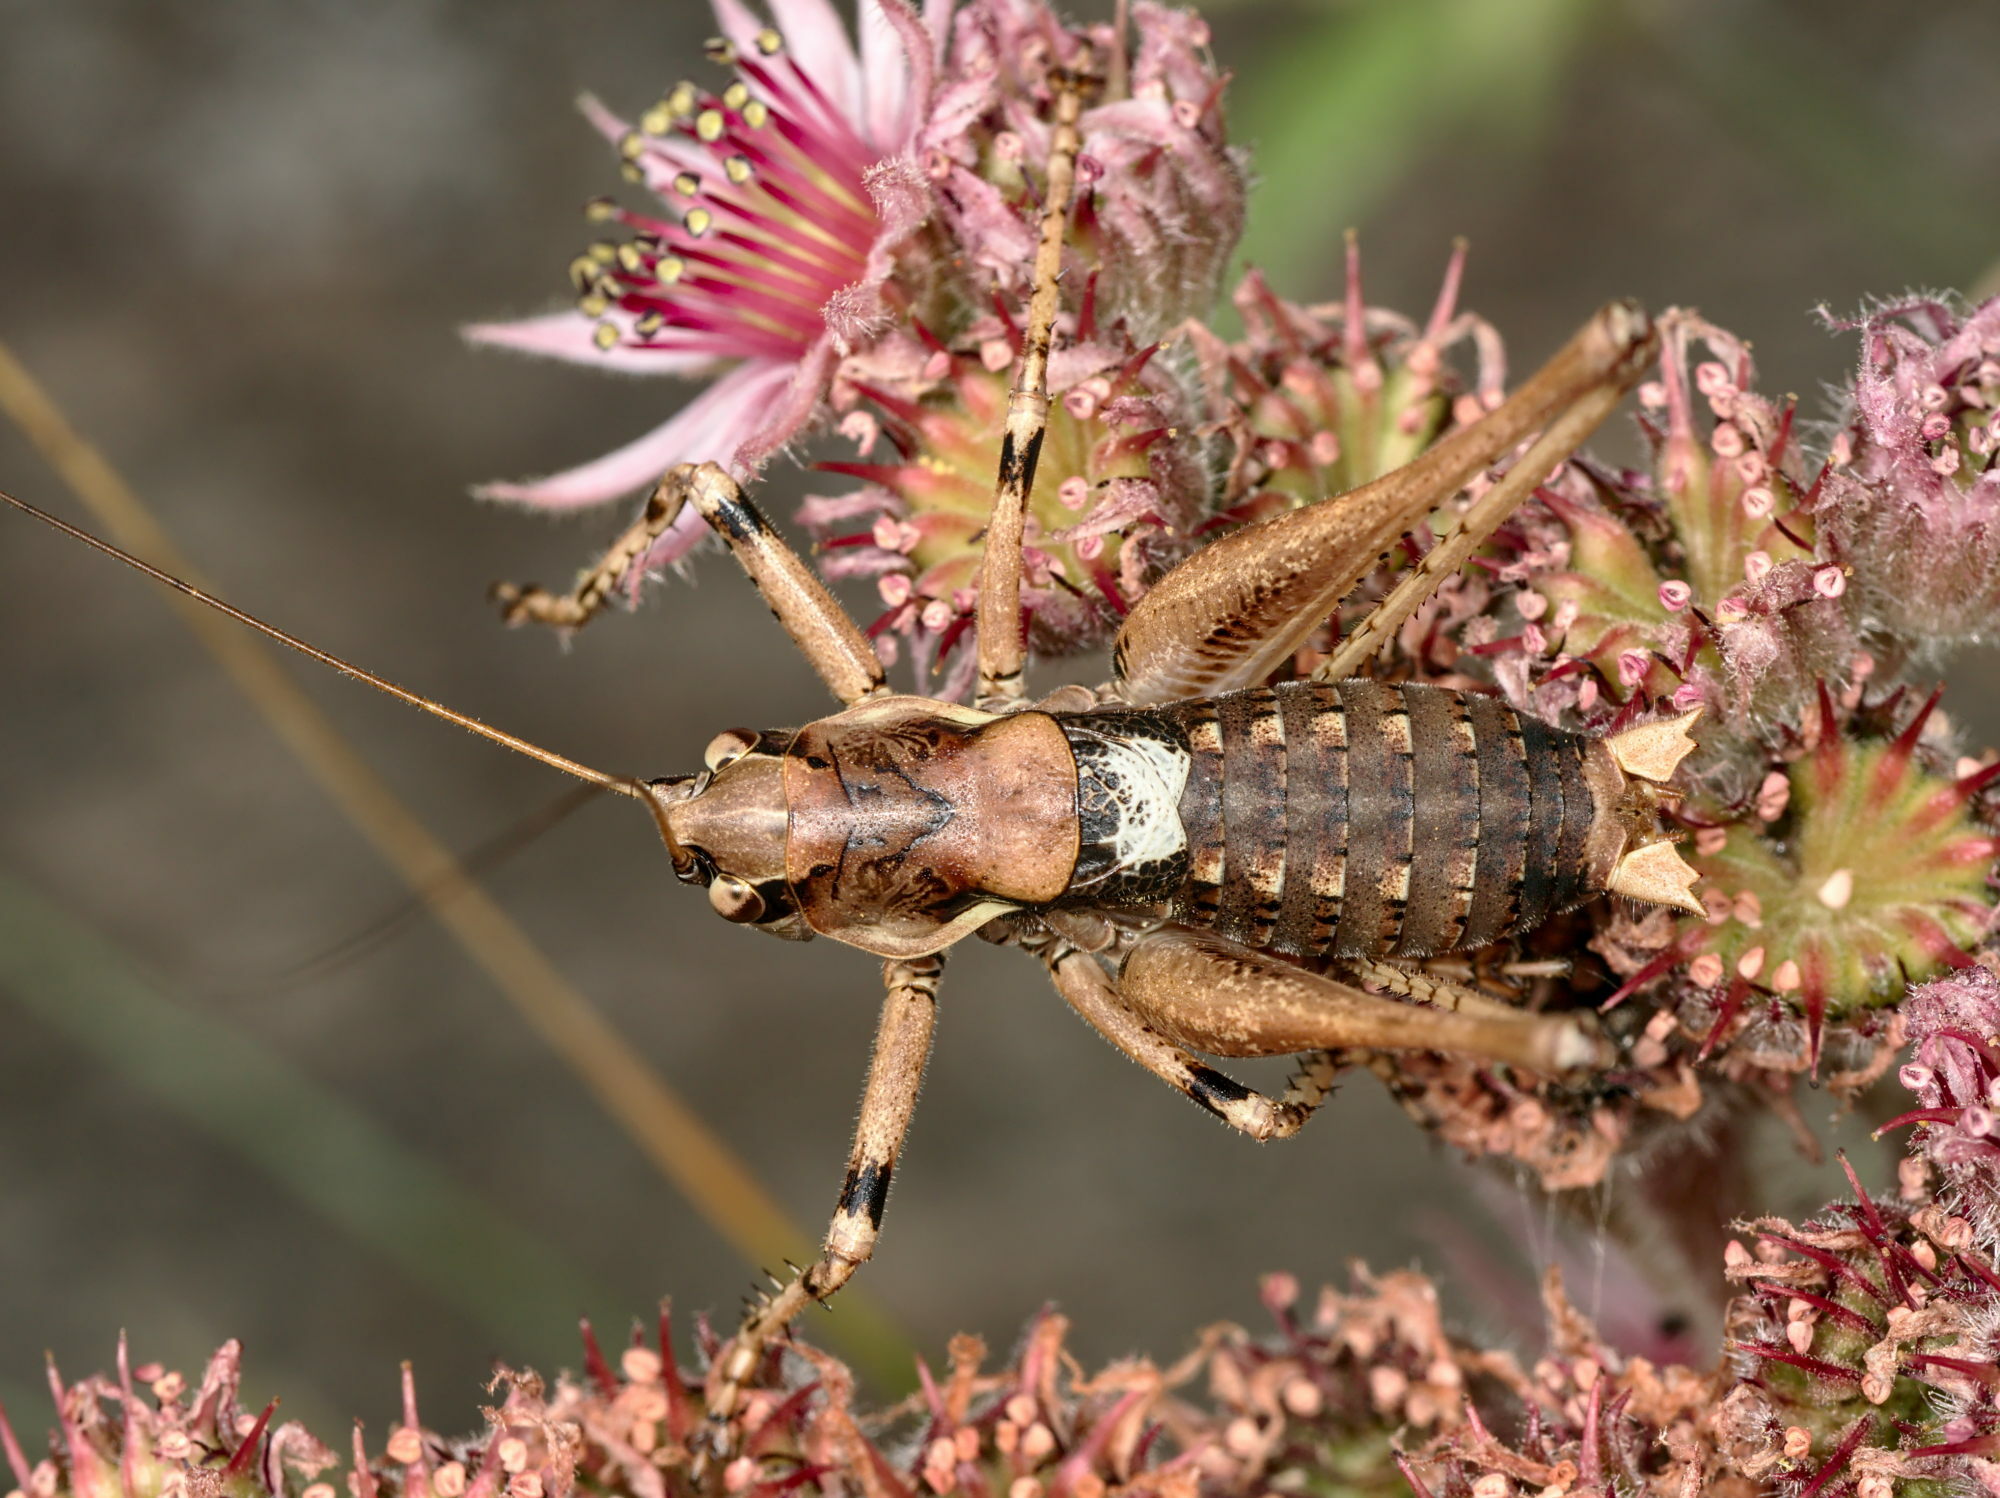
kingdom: Animalia
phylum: Arthropoda
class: Insecta
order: Orthoptera
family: Tettigoniidae
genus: Antaxius
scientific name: Antaxius pedestris
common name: Common mountain bush-cricket
